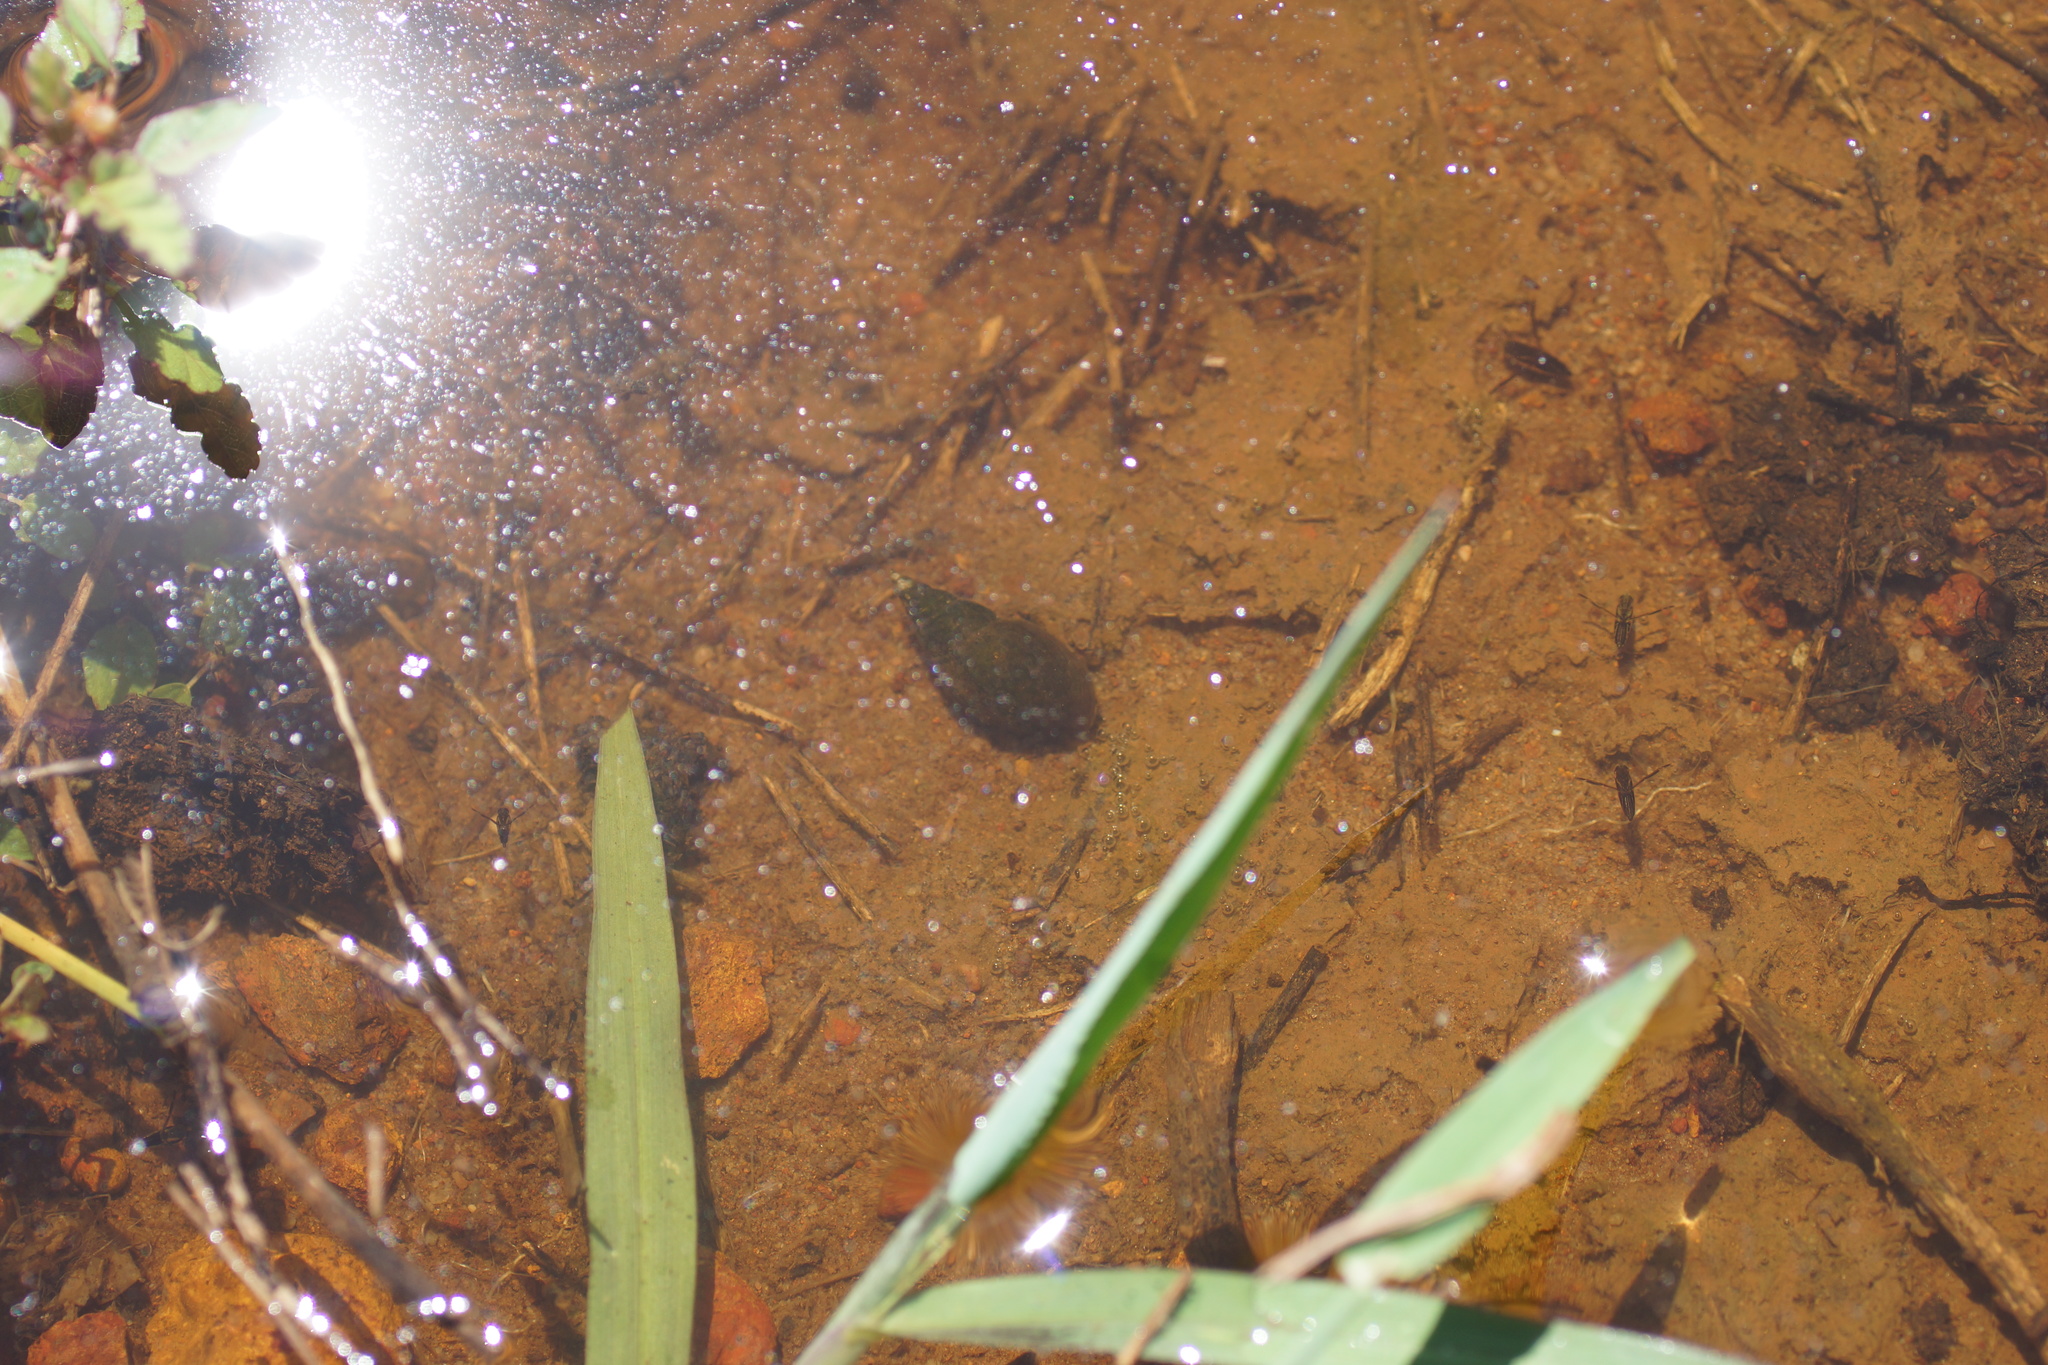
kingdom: Animalia
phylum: Mollusca
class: Gastropoda
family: Planorbidae
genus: Glyptophysa
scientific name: Glyptophysa novaehollandica
